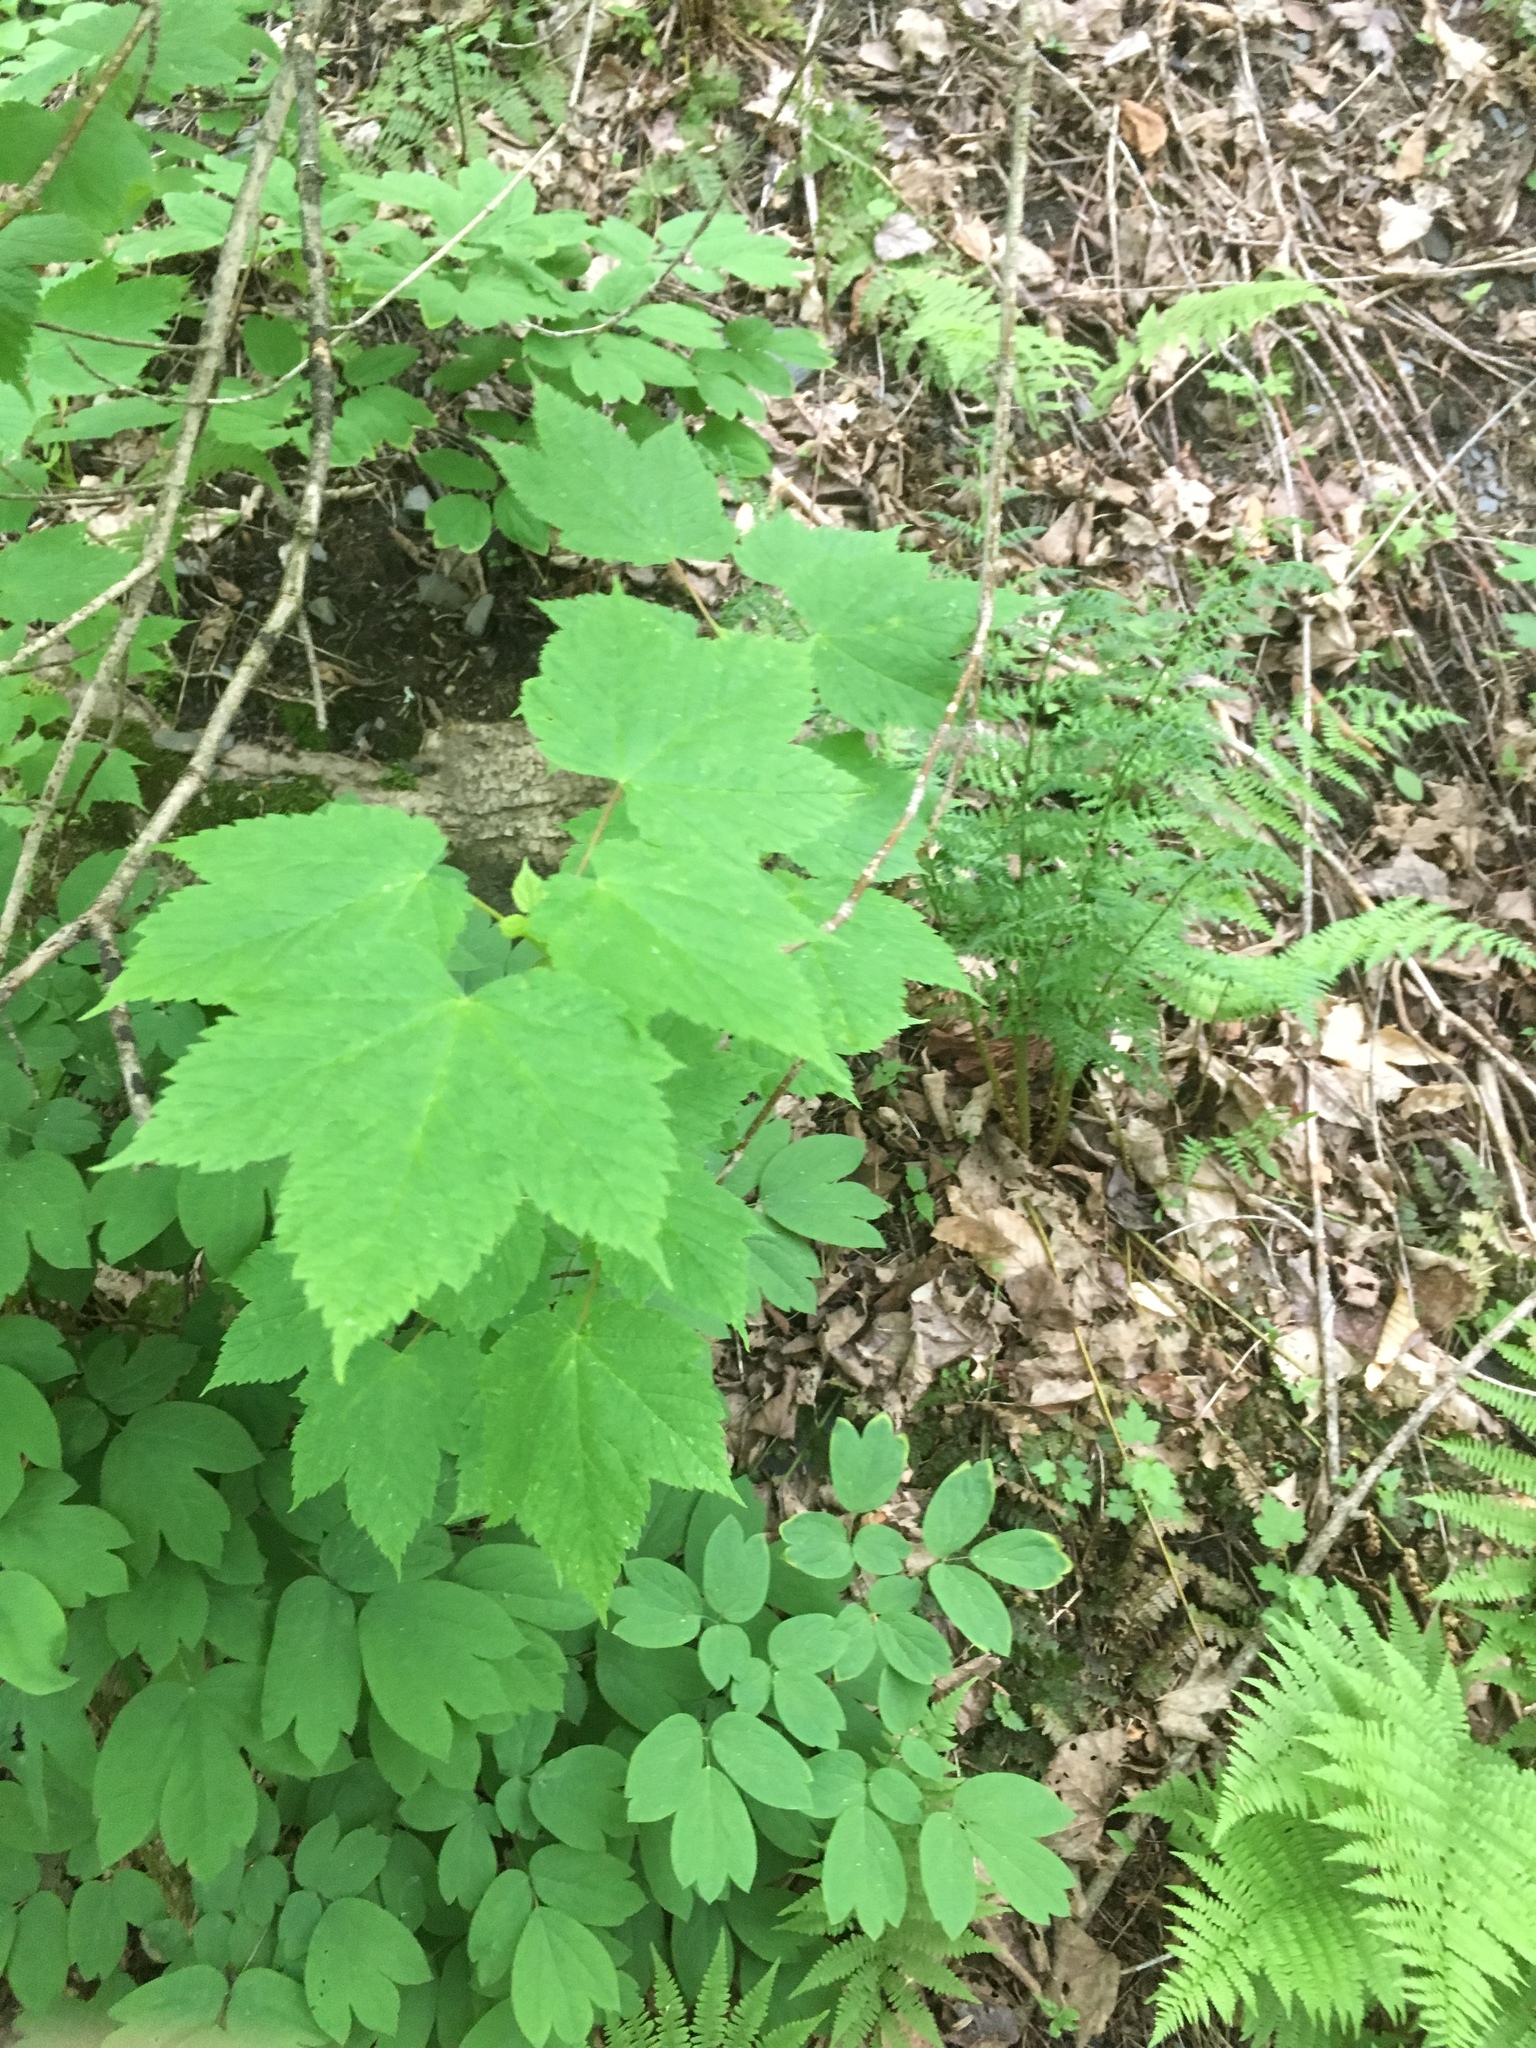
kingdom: Plantae
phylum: Tracheophyta
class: Magnoliopsida
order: Sapindales
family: Sapindaceae
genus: Acer
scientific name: Acer spicatum
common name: Mountain maple
